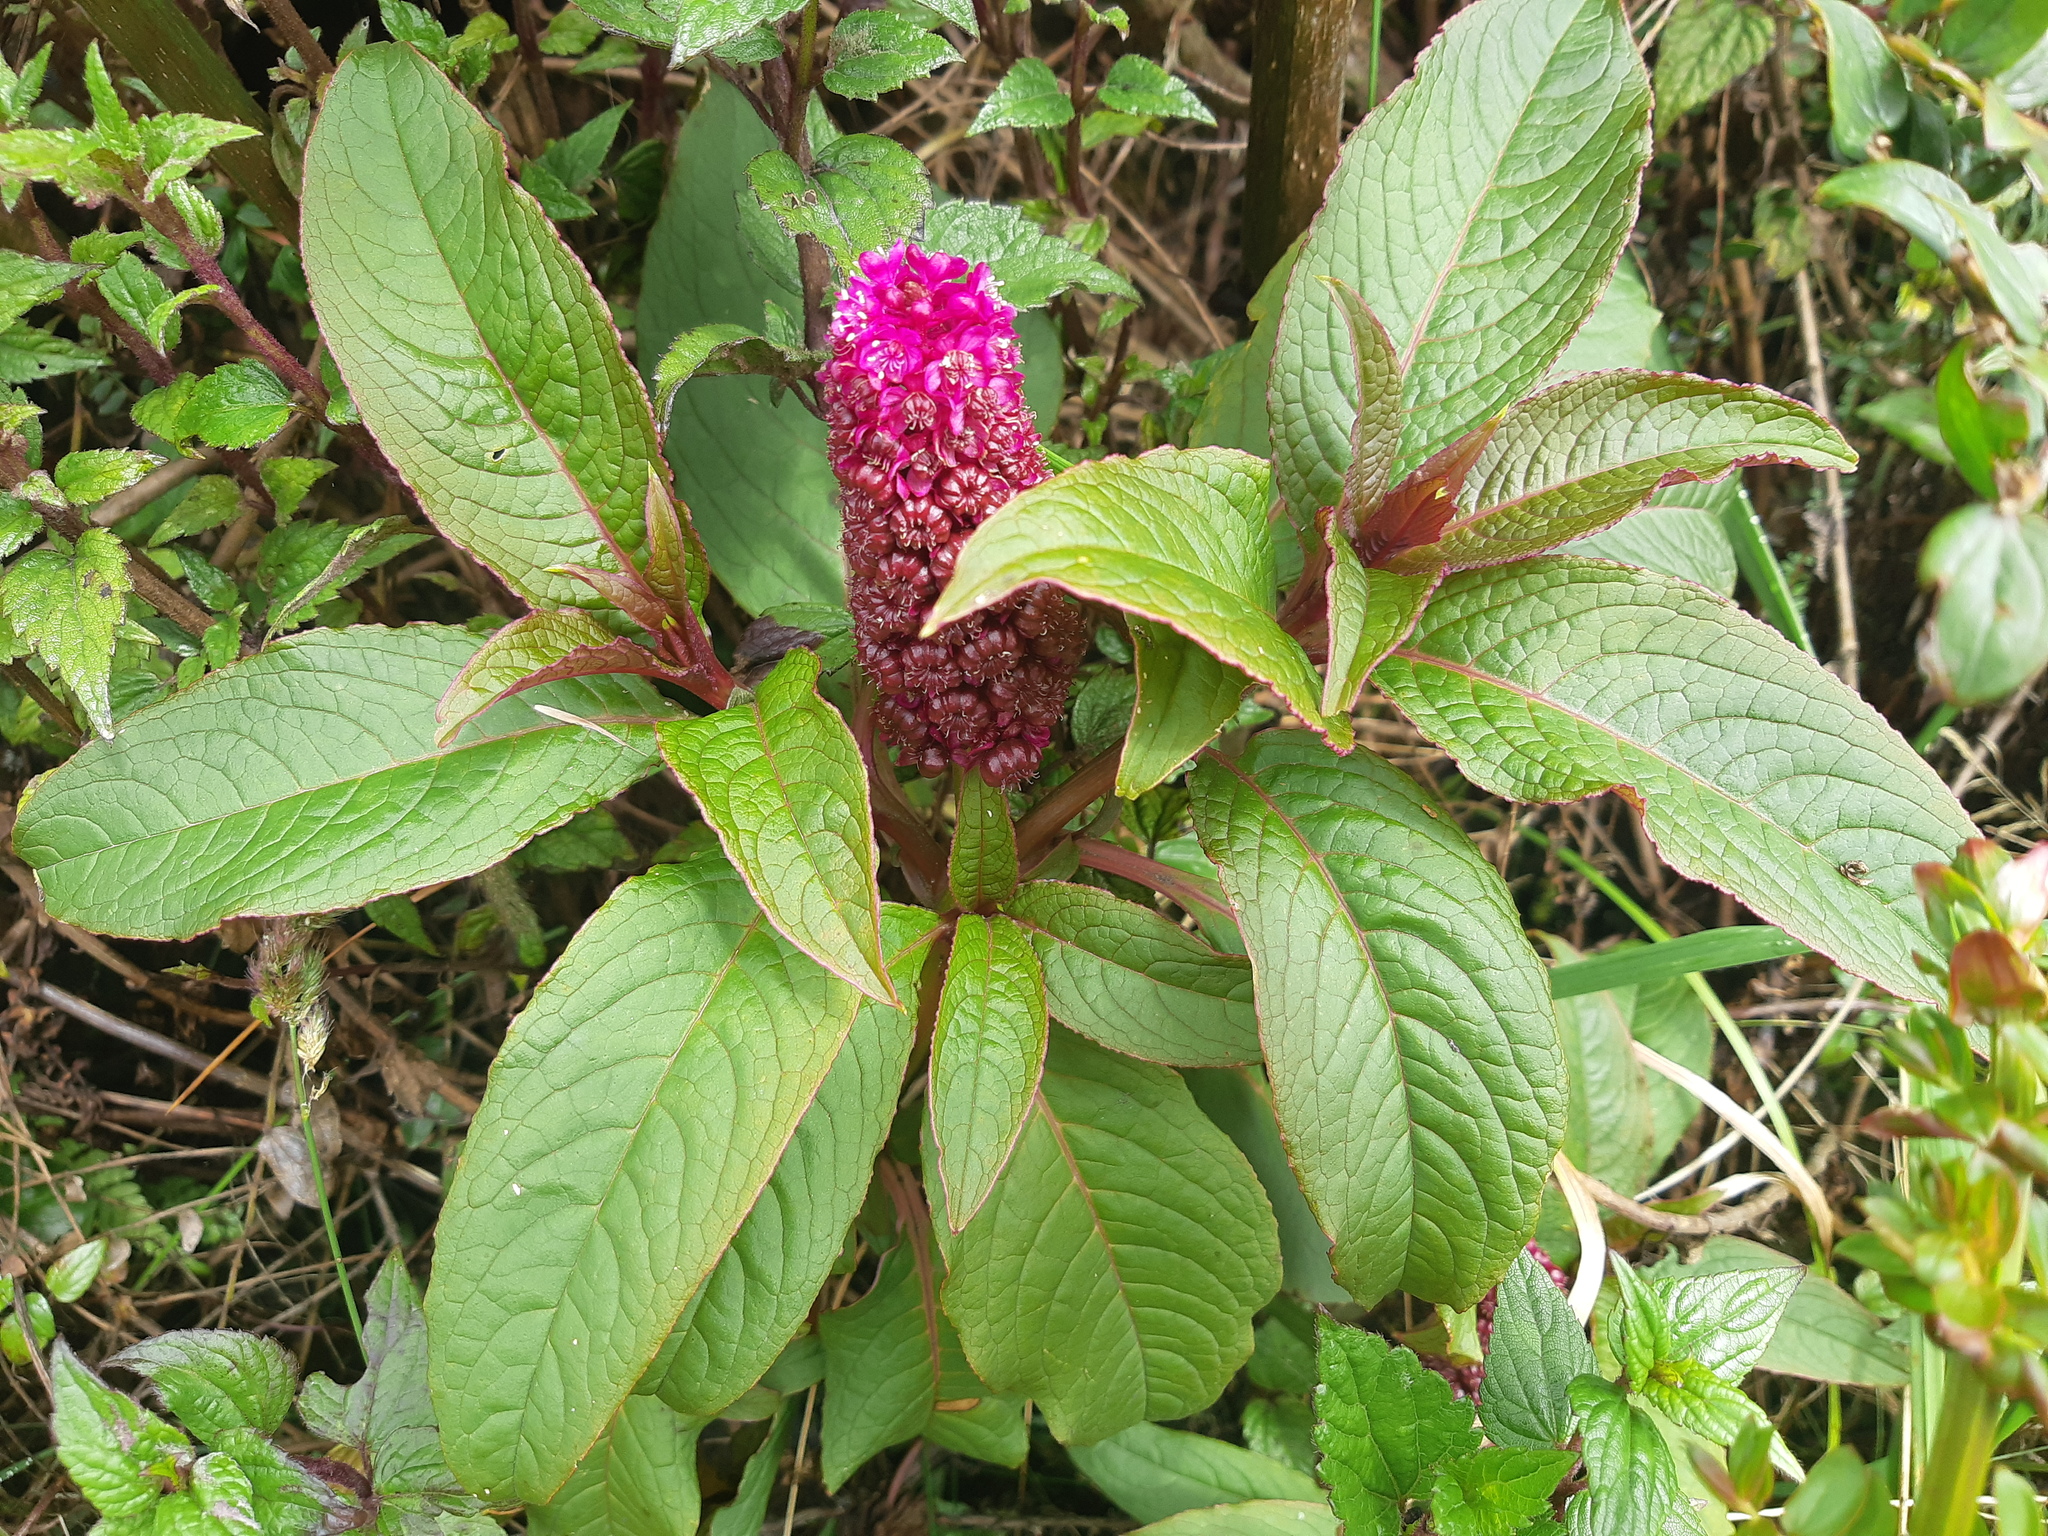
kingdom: Plantae
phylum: Tracheophyta
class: Magnoliopsida
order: Caryophyllales
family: Phytolaccaceae
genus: Phytolacca
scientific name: Phytolacca bogotensis
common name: Southern pokeweed
